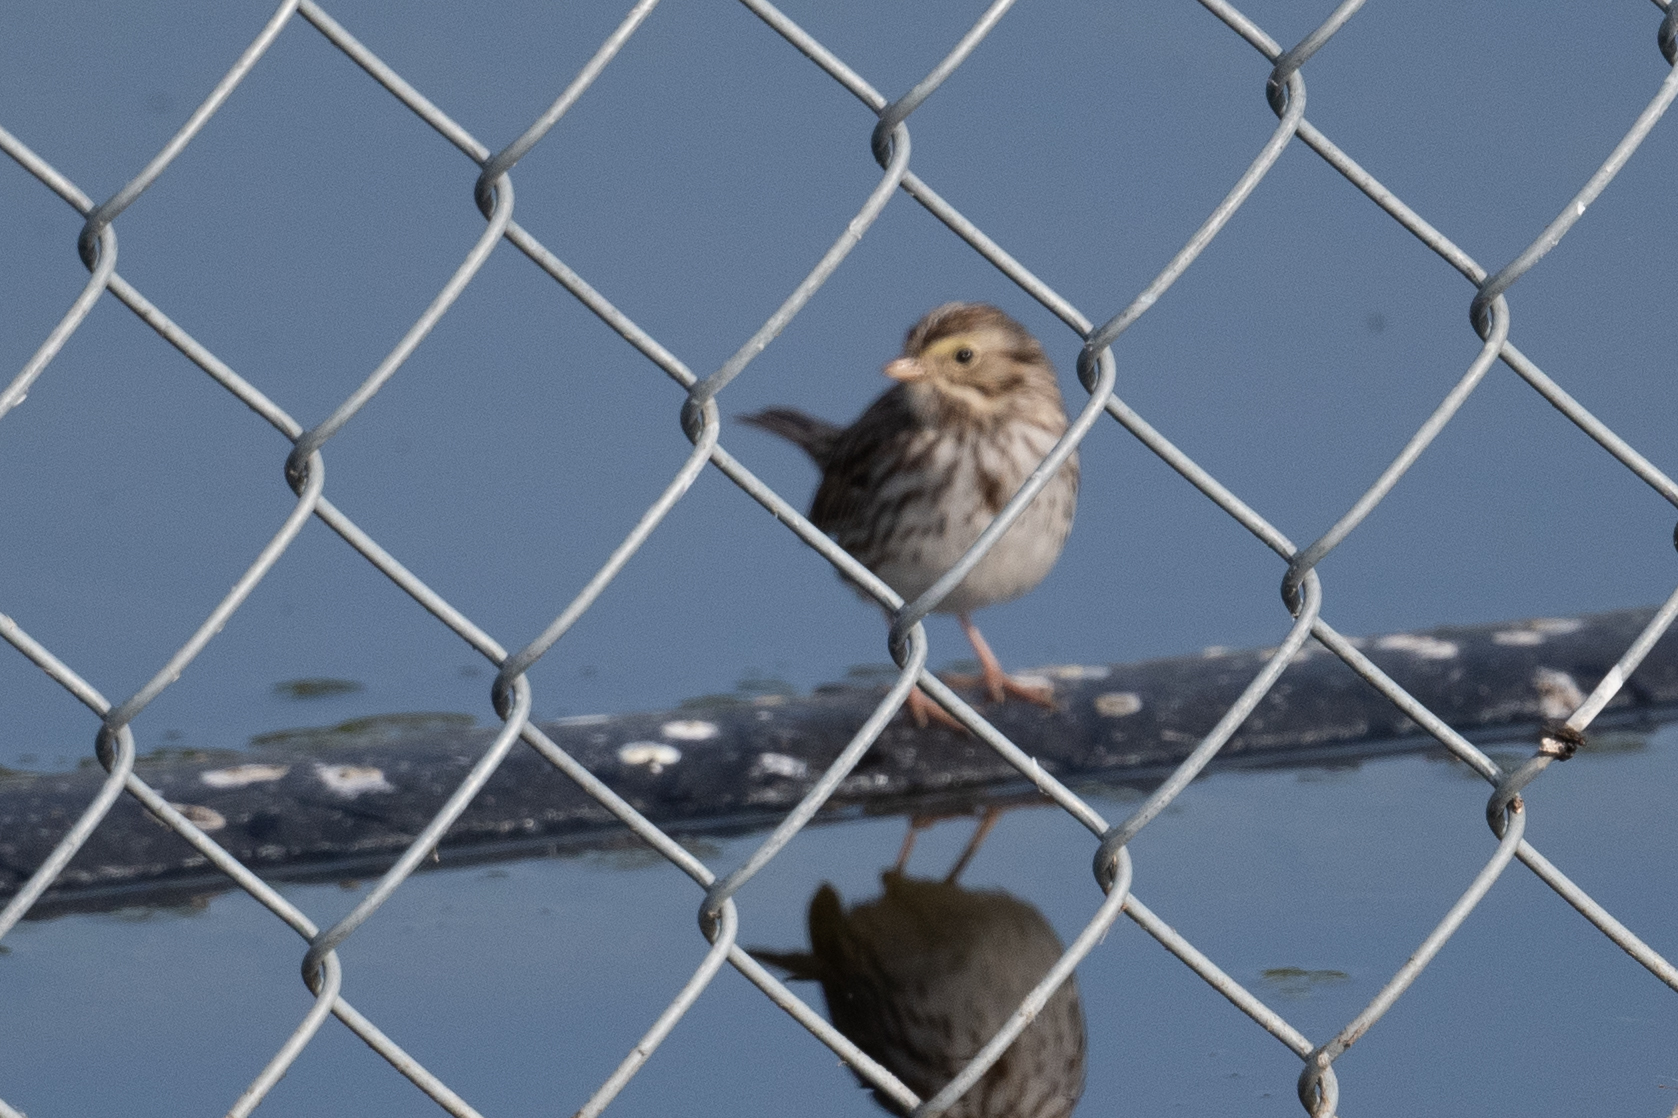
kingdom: Animalia
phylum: Chordata
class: Aves
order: Passeriformes
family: Passerellidae
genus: Passerculus
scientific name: Passerculus sandwichensis
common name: Savannah sparrow
